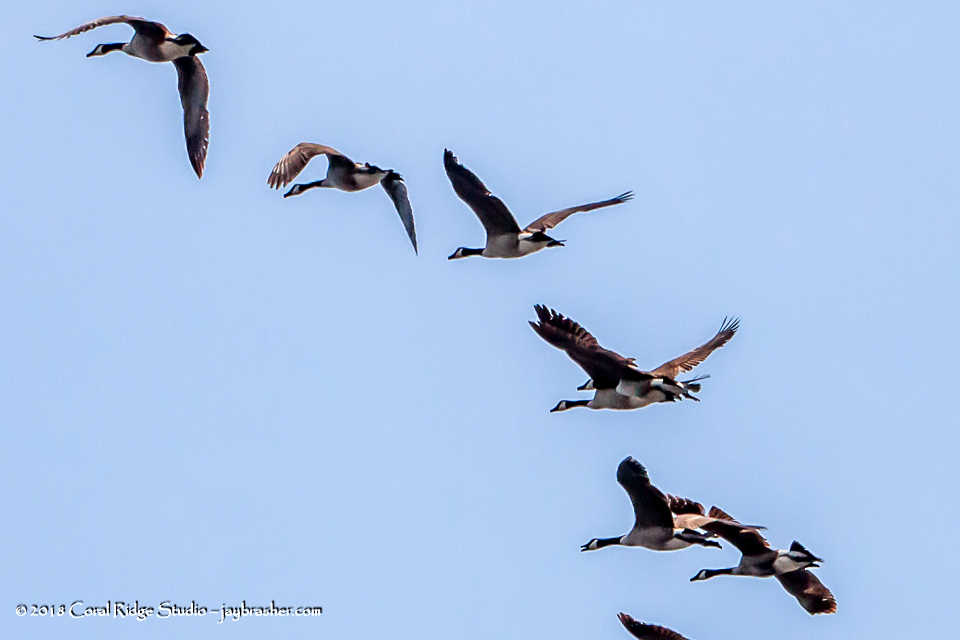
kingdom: Animalia
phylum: Chordata
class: Aves
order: Anseriformes
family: Anatidae
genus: Branta
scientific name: Branta canadensis
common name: Canada goose
